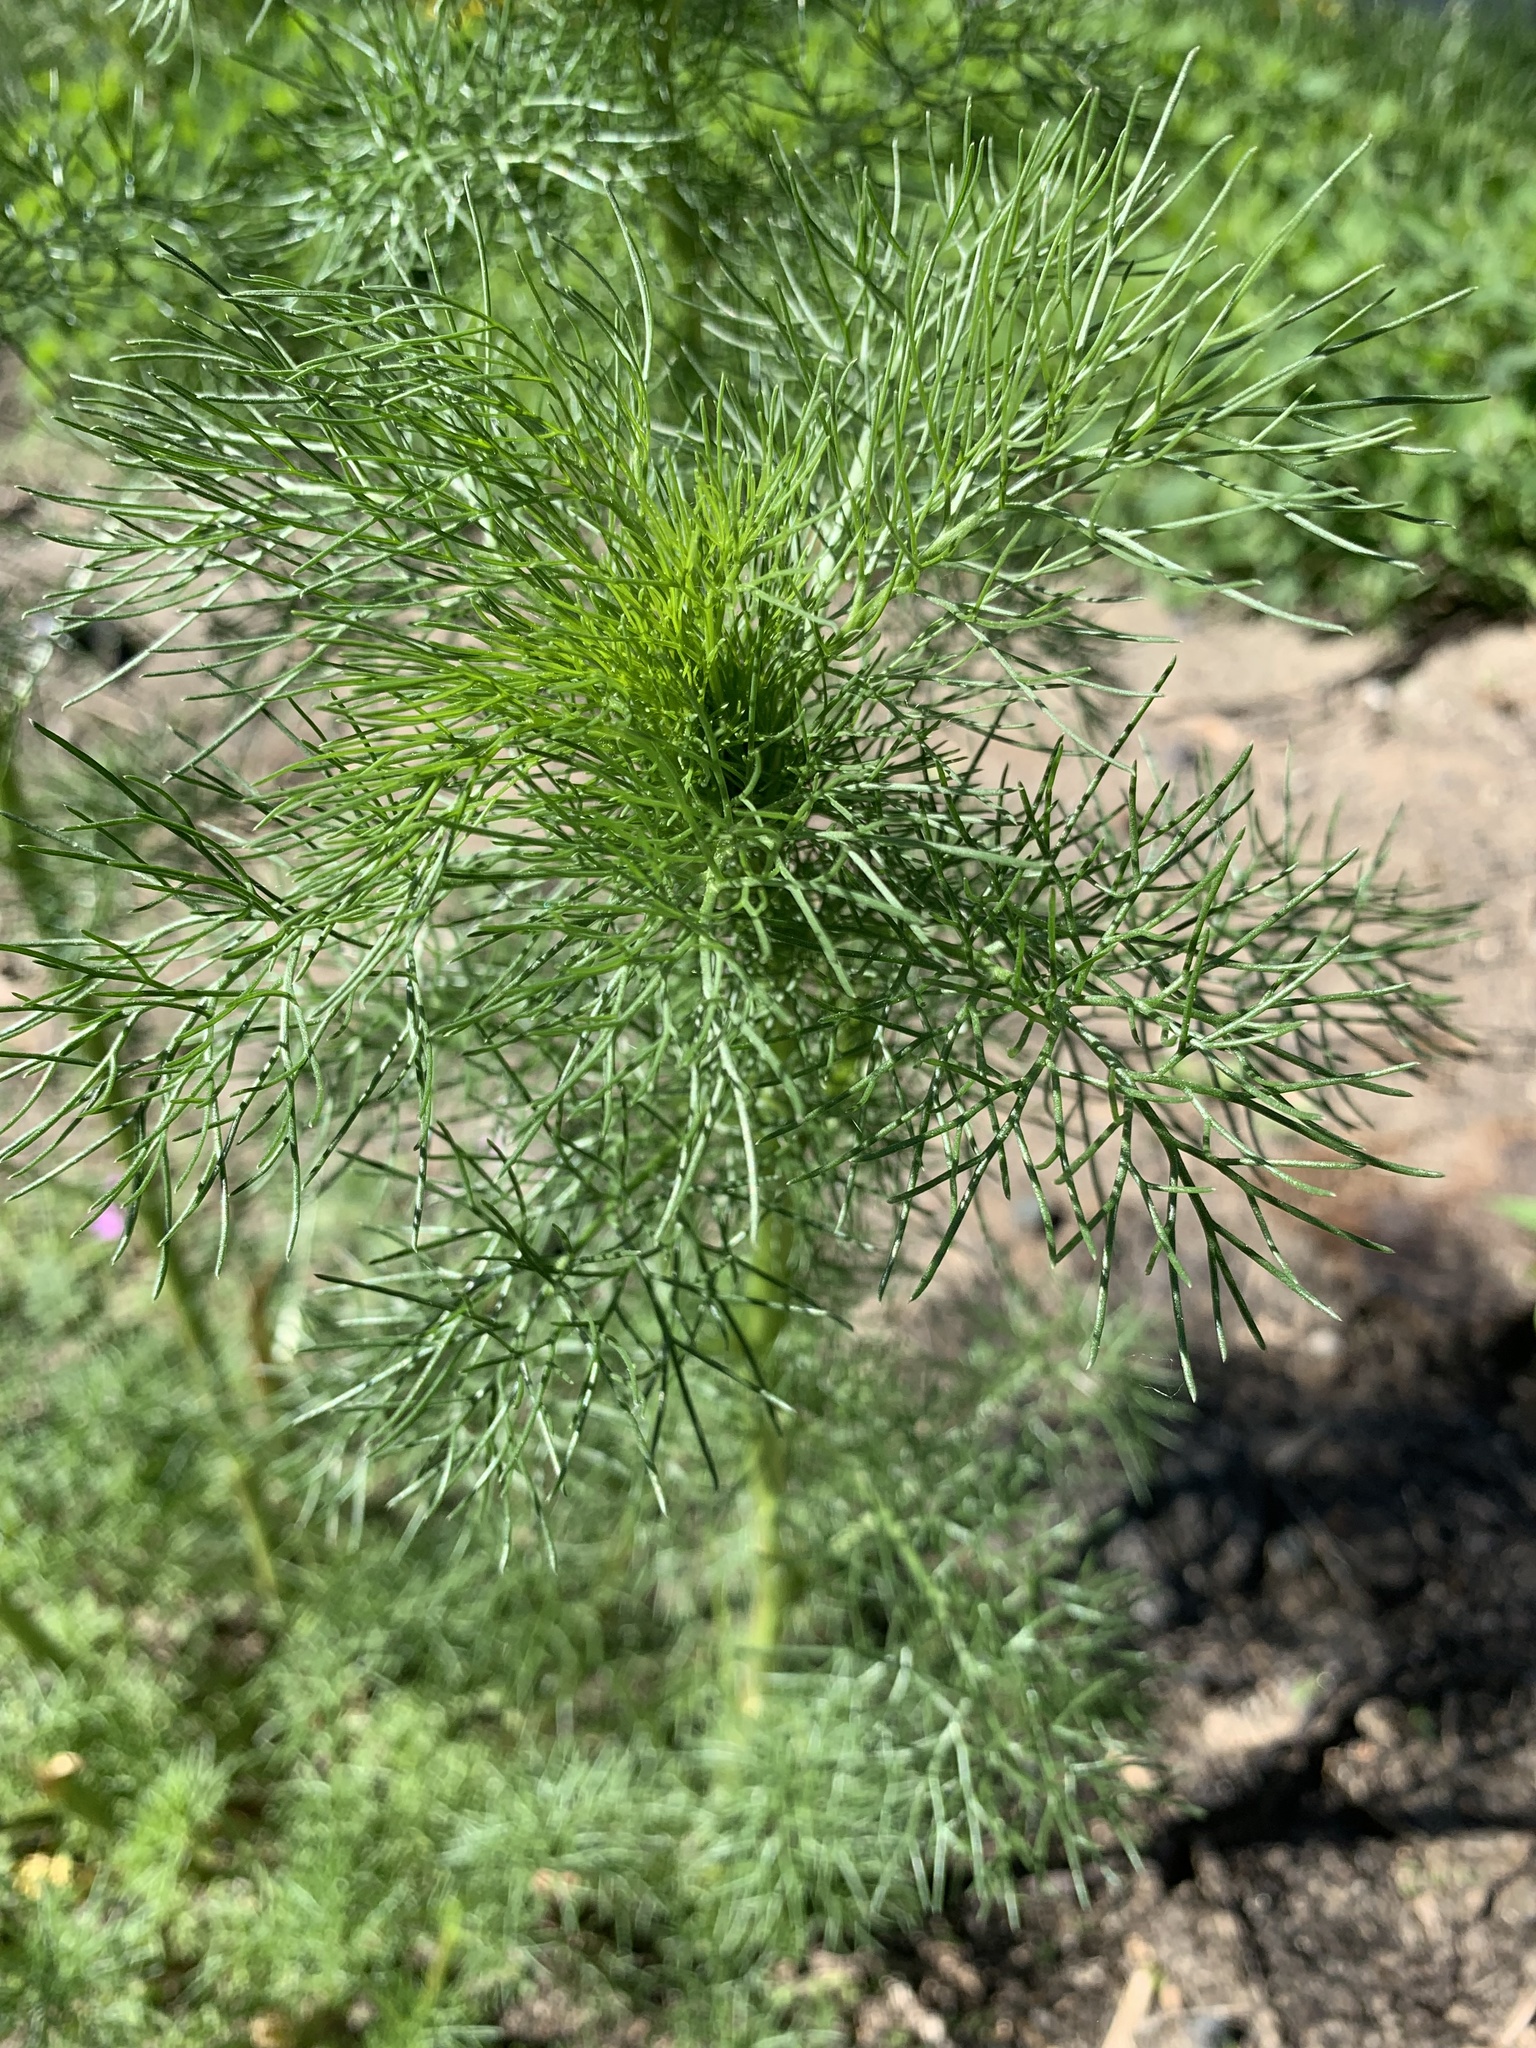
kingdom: Plantae
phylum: Tracheophyta
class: Magnoliopsida
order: Asterales
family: Asteraceae
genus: Tripleurospermum
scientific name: Tripleurospermum inodorum
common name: Scentless mayweed
